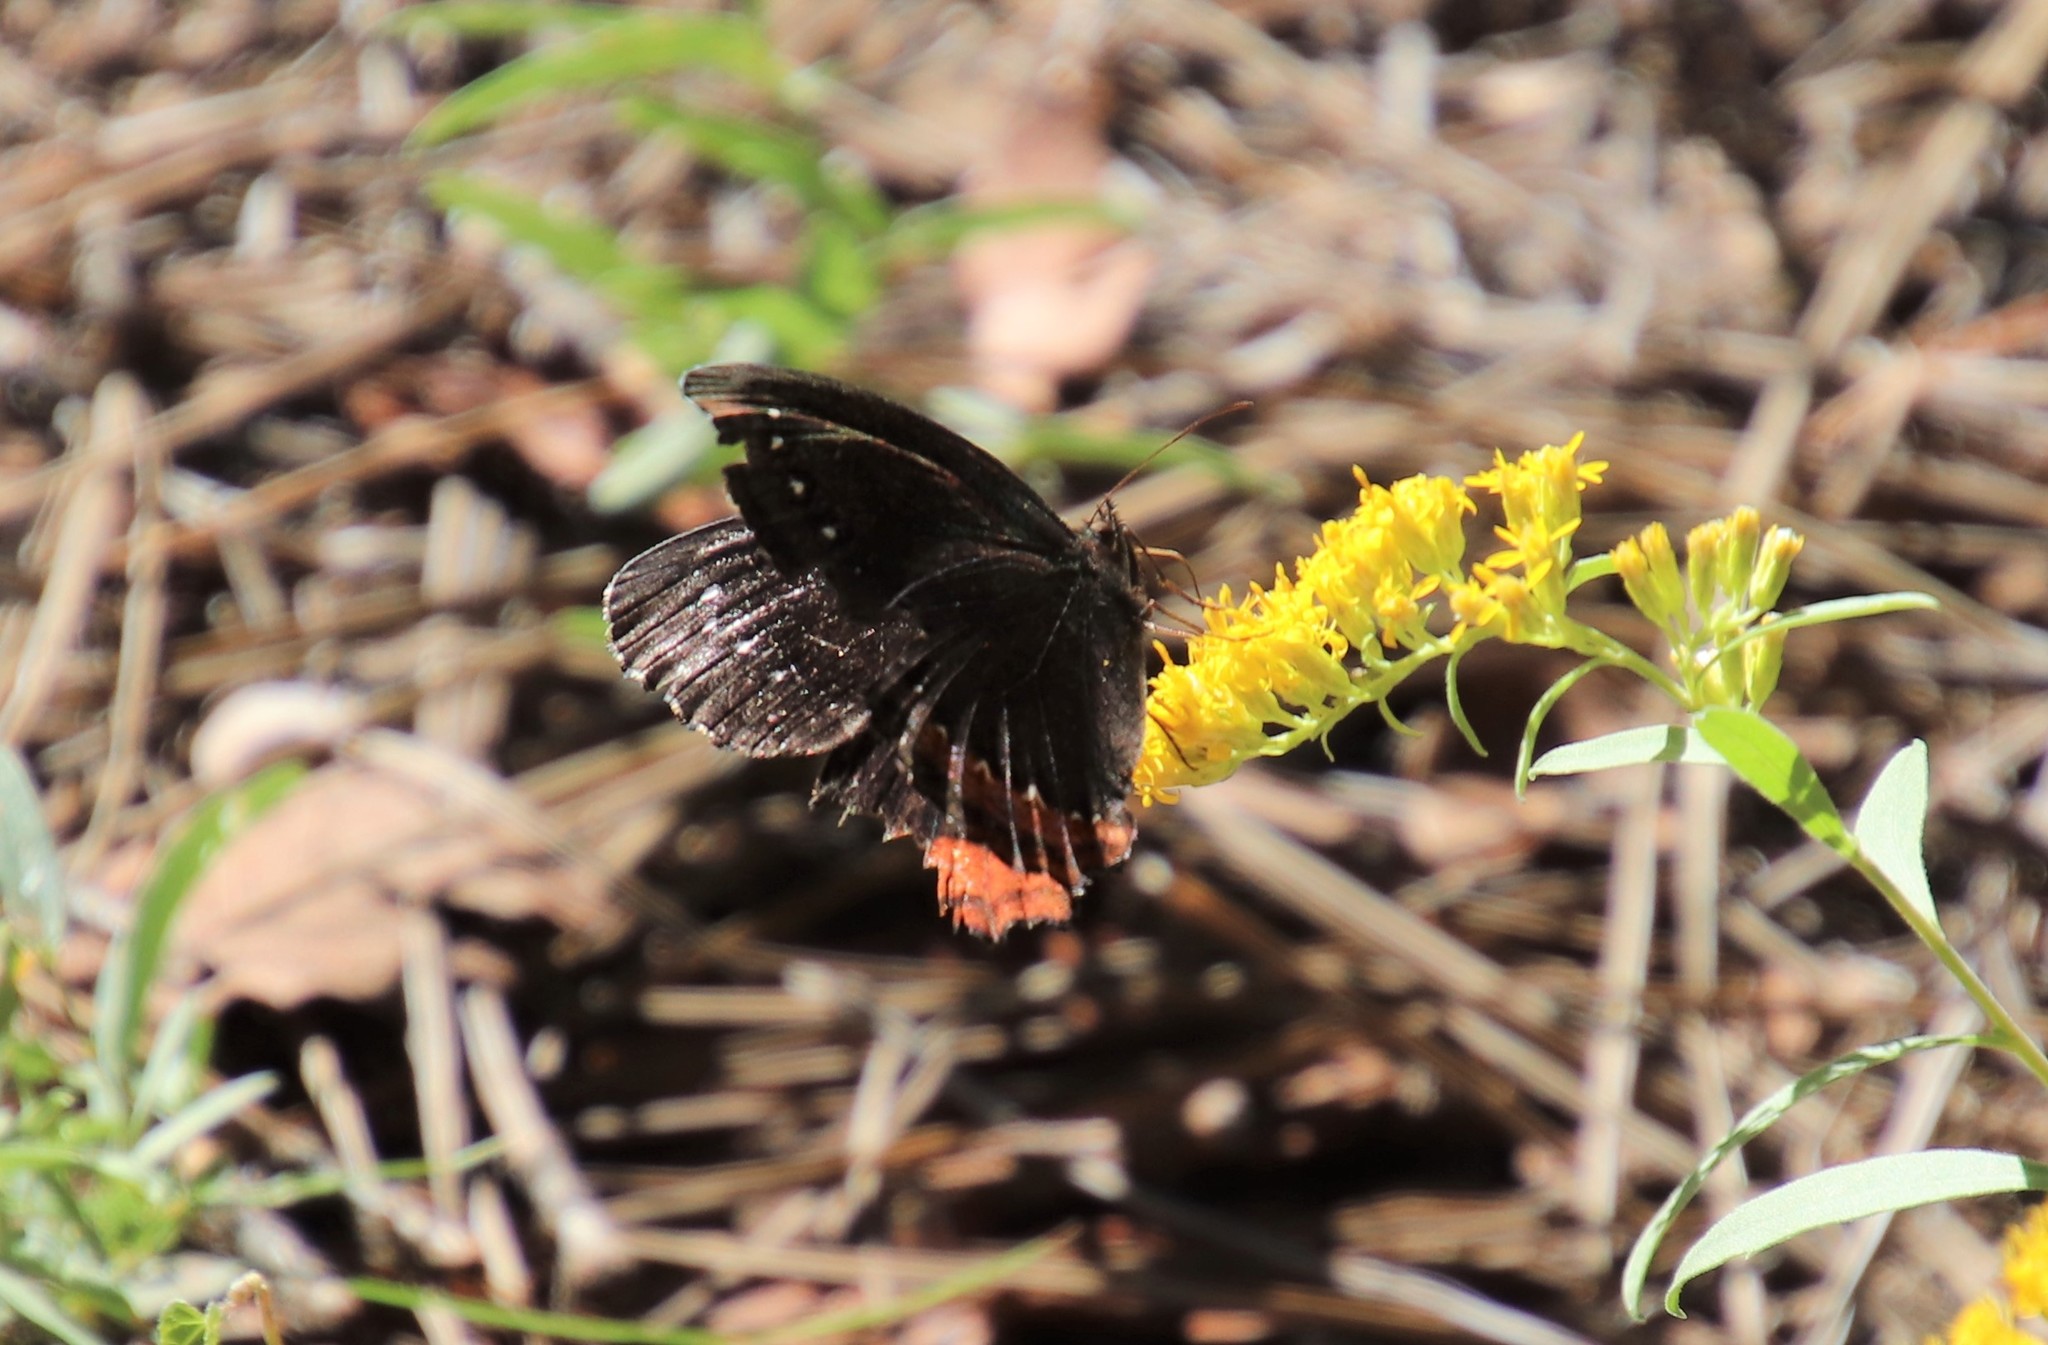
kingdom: Animalia
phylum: Arthropoda
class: Insecta
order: Lepidoptera
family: Nymphalidae
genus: Gyrocheilus
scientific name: Gyrocheilus patrobas
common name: Red-bordered satyr
